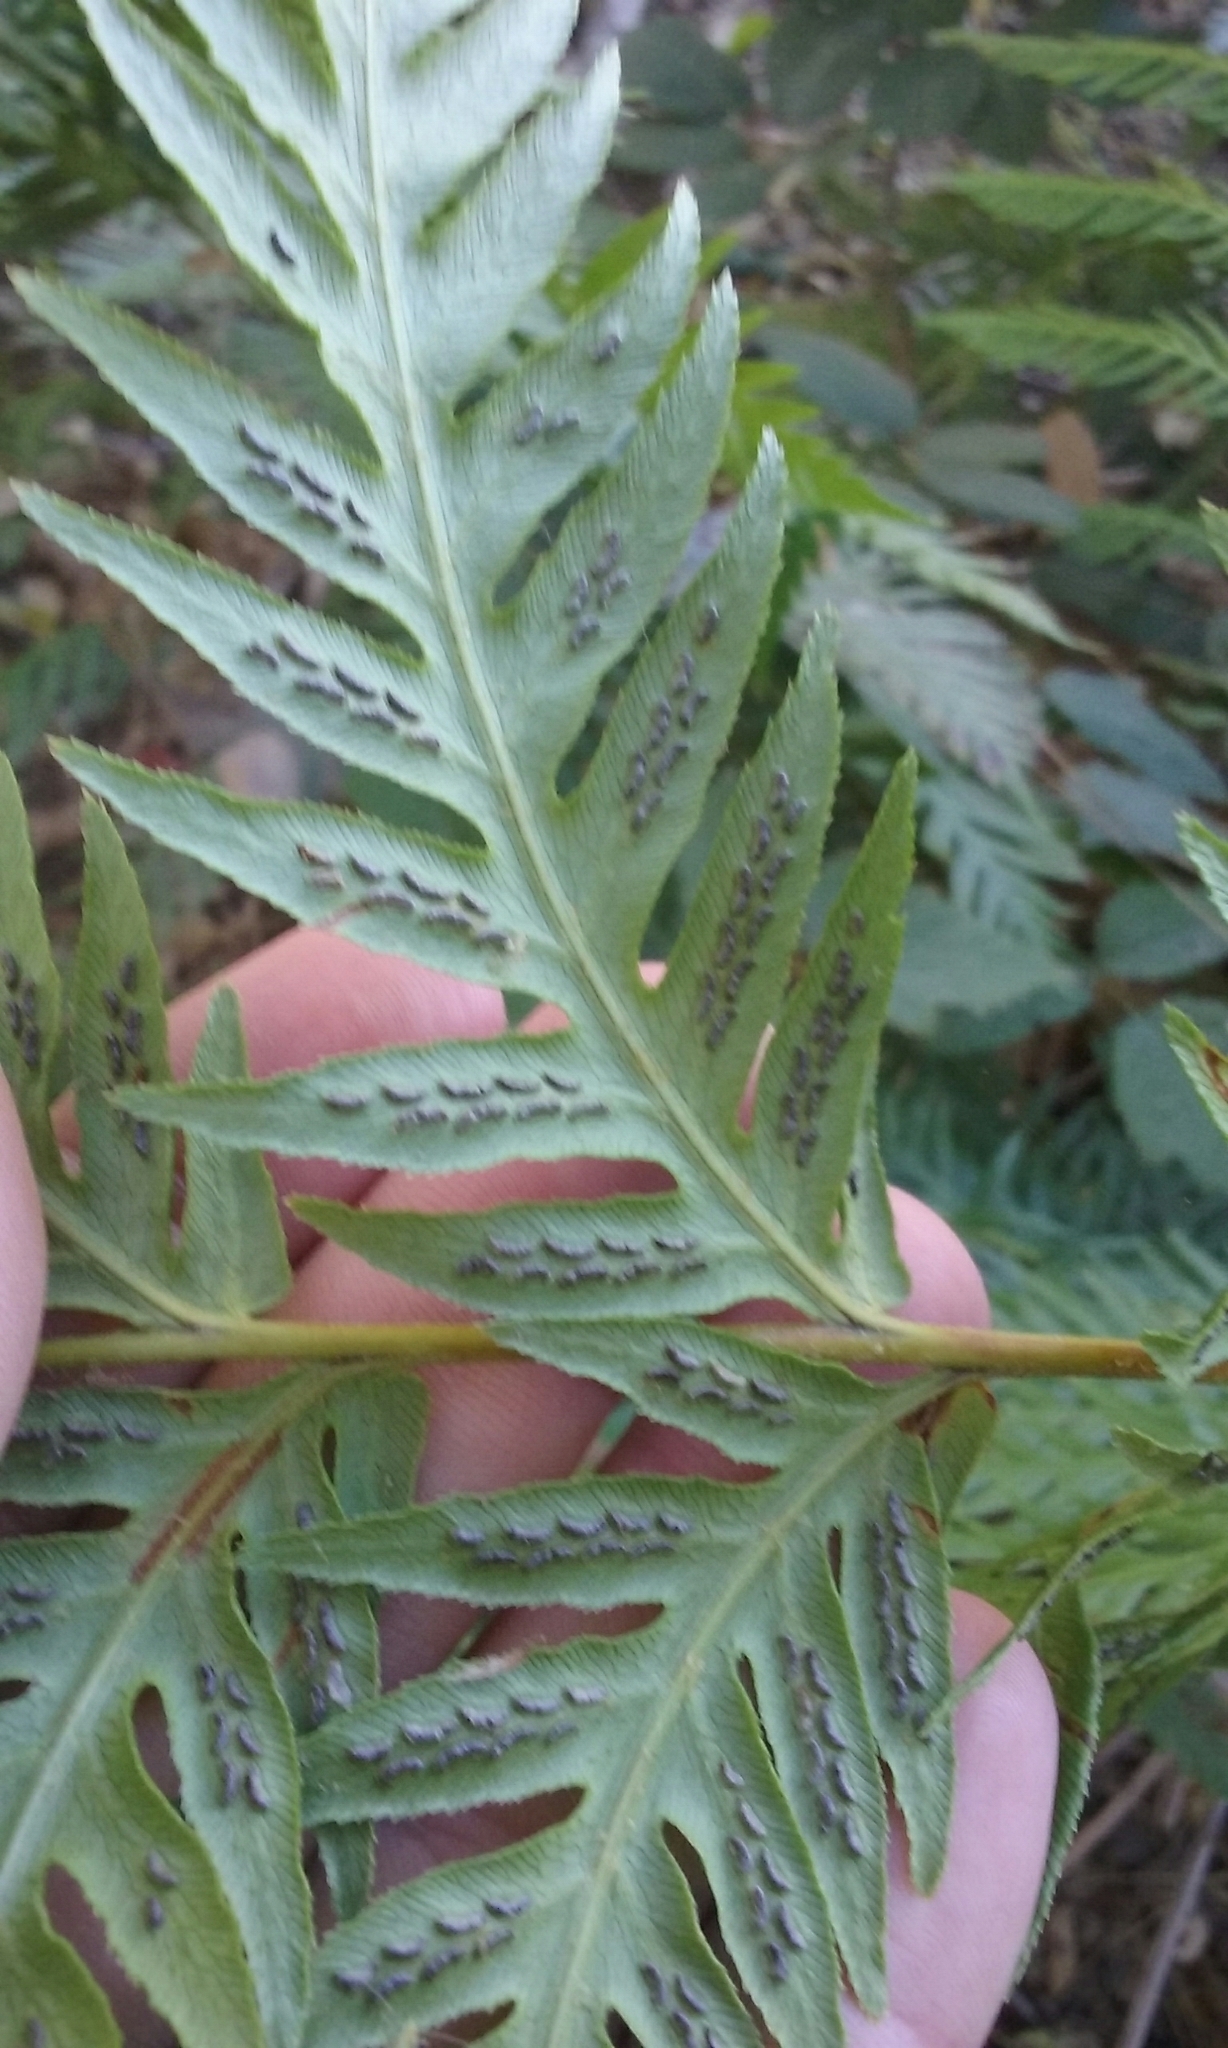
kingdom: Plantae
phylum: Tracheophyta
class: Polypodiopsida
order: Polypodiales
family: Blechnaceae
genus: Woodwardia
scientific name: Woodwardia fimbriata
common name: Giant chain fern
